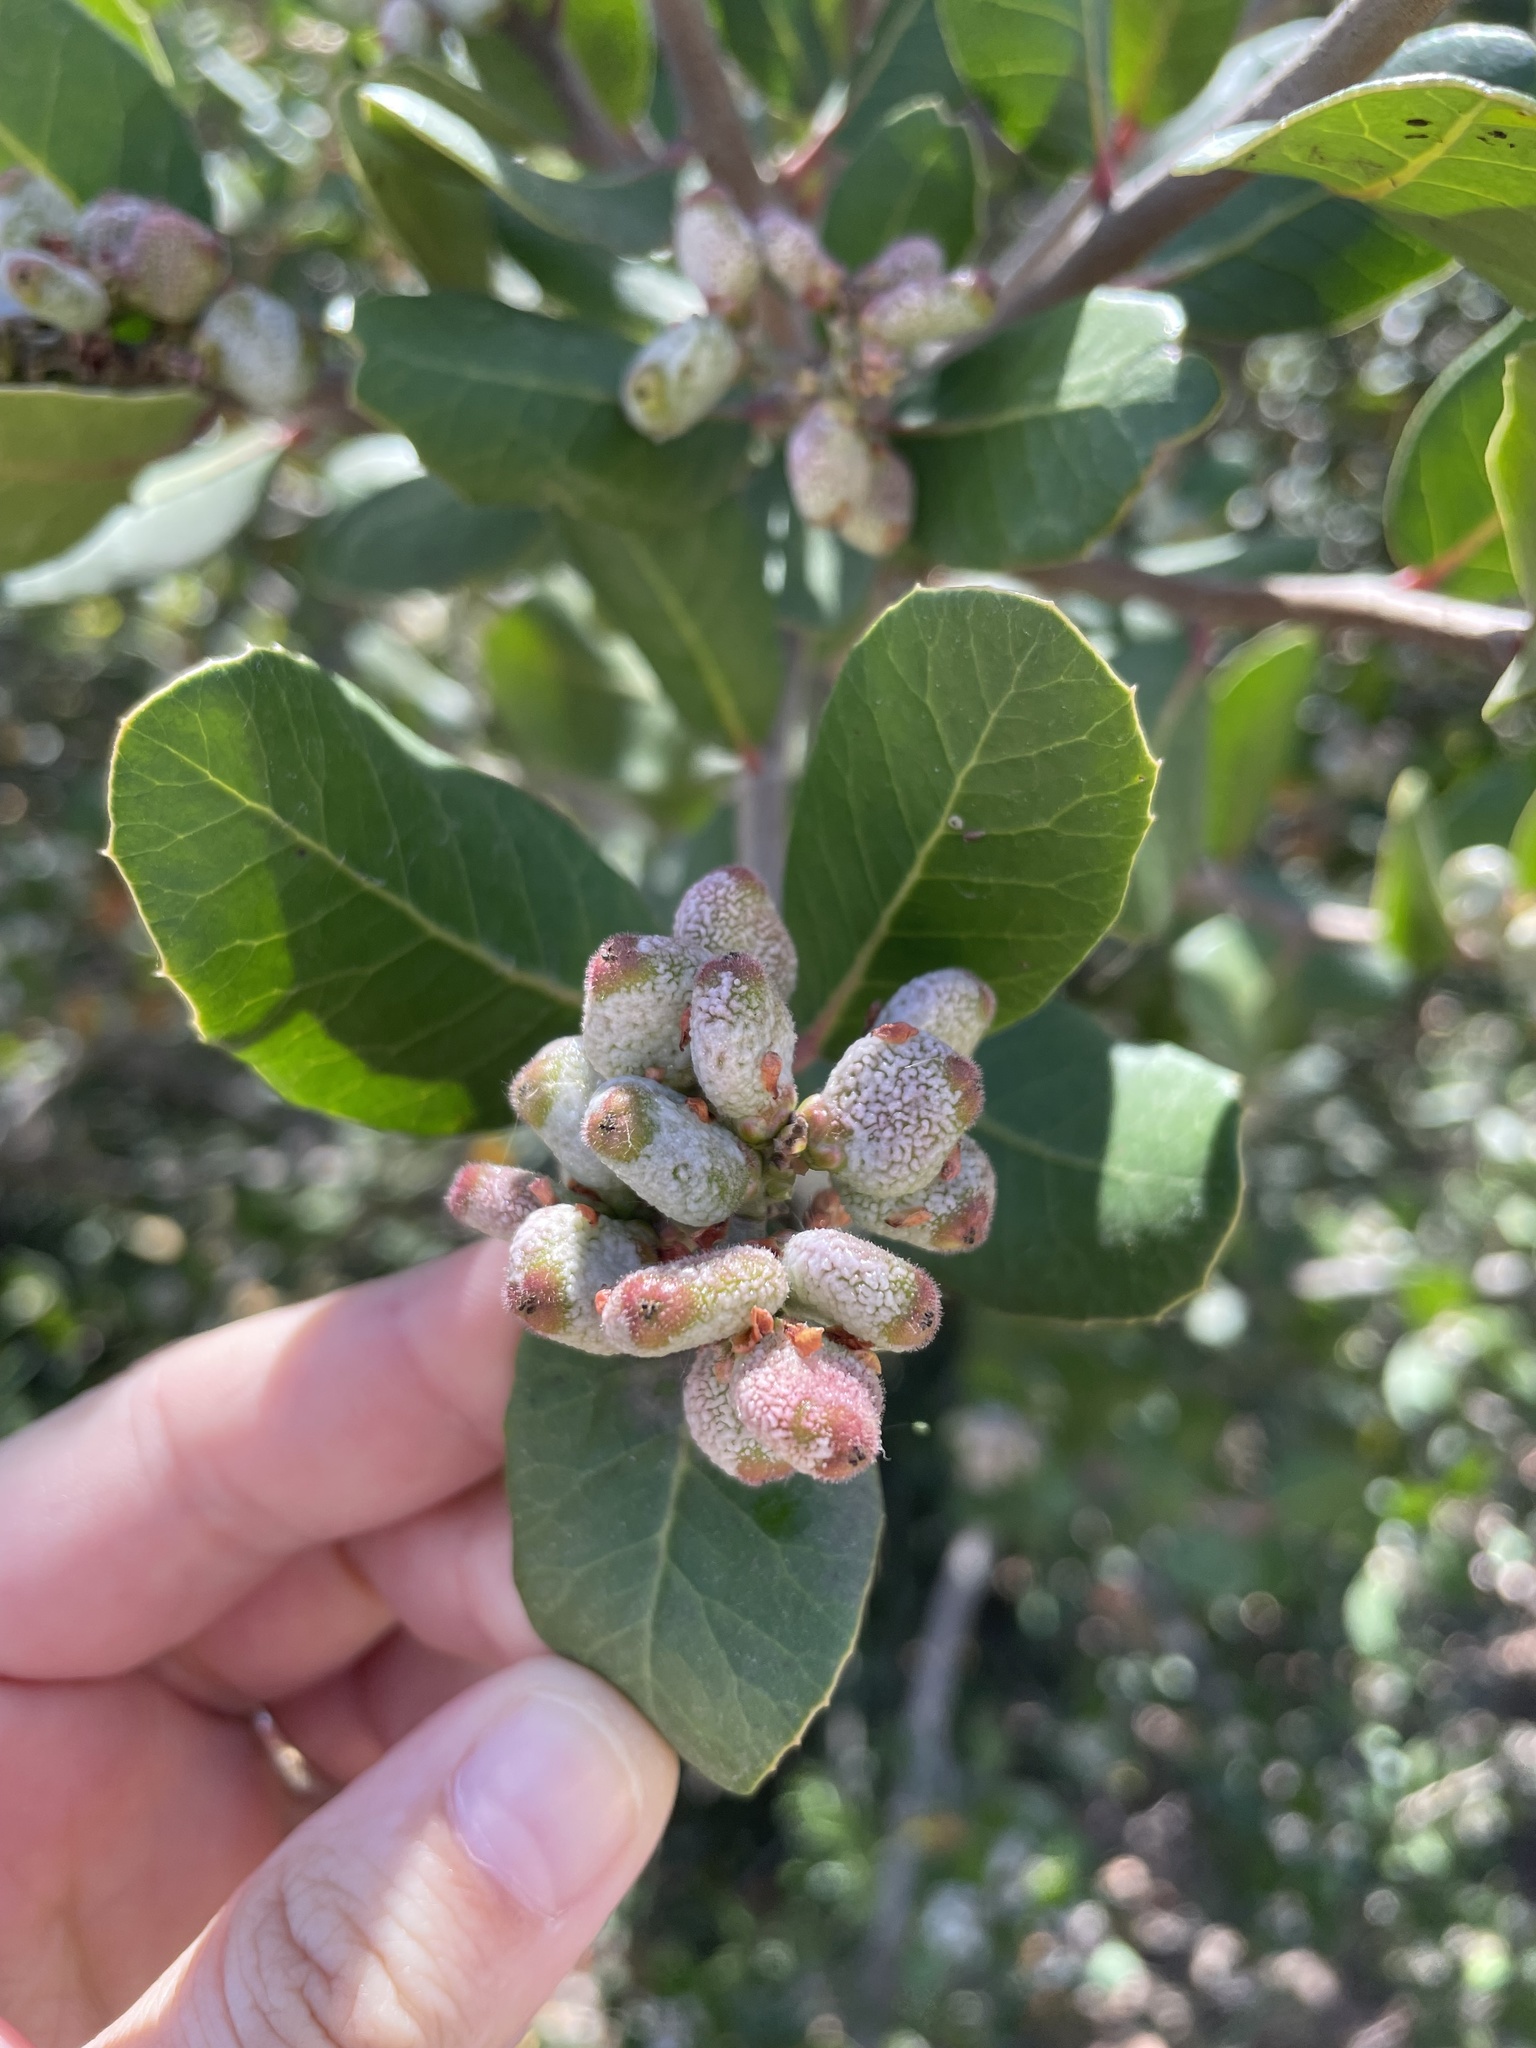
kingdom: Plantae
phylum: Tracheophyta
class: Magnoliopsida
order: Sapindales
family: Anacardiaceae
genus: Rhus
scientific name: Rhus integrifolia
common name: Lemonade sumac
